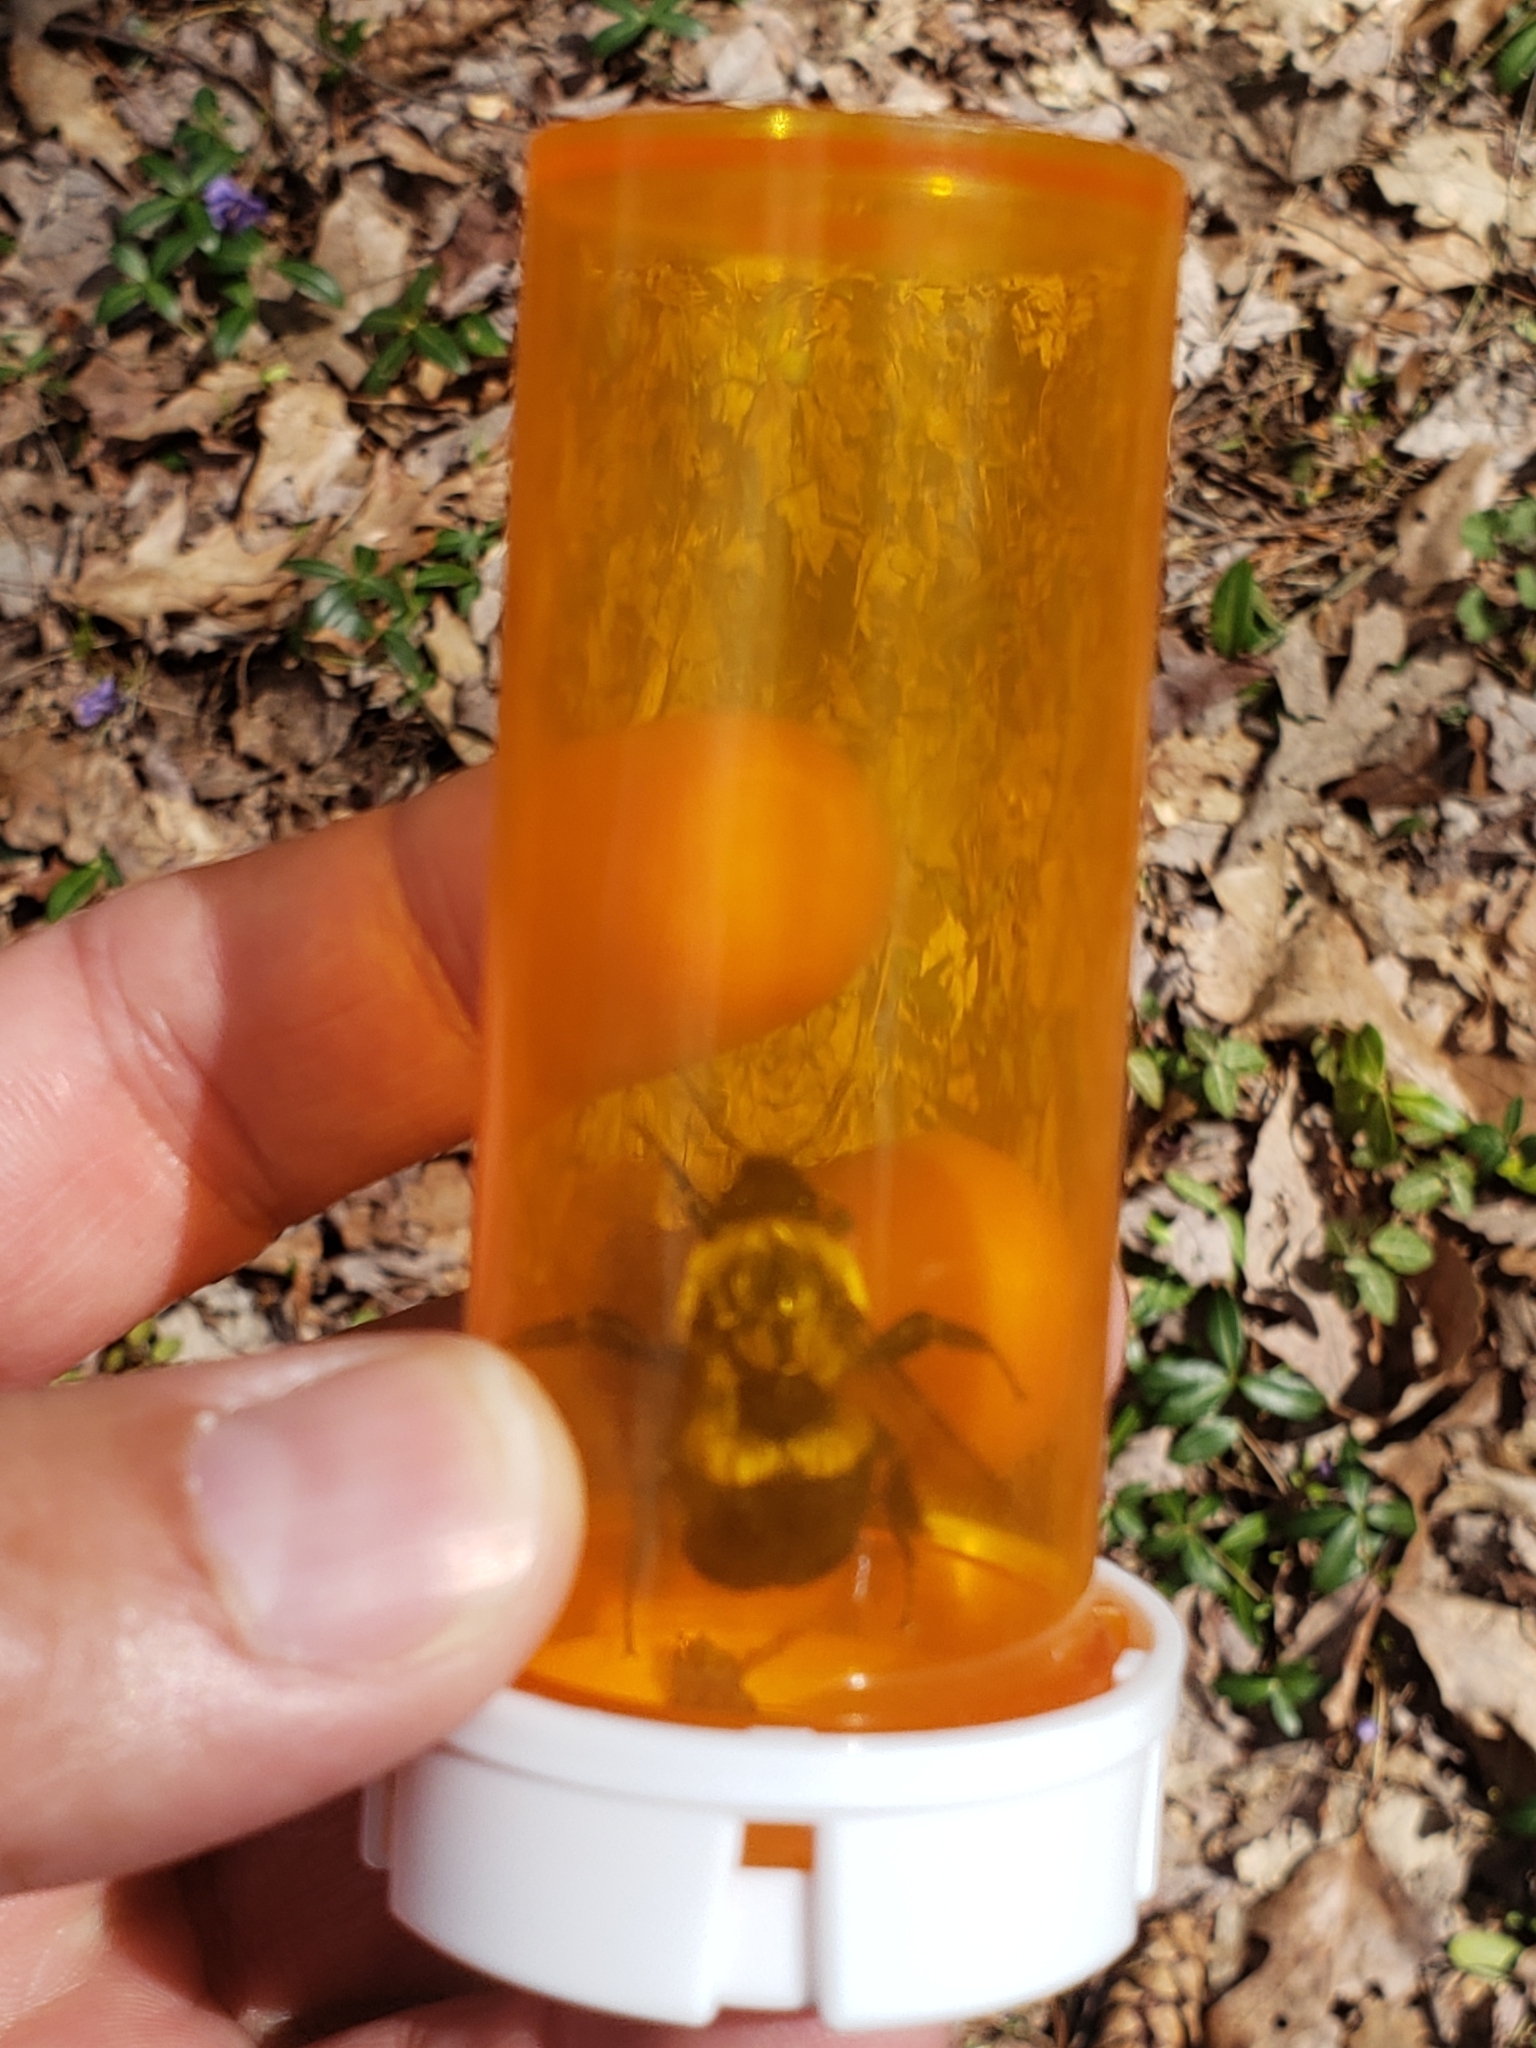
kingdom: Animalia
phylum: Arthropoda
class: Insecta
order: Hymenoptera
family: Apidae
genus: Bombus
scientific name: Bombus impatiens
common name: Common eastern bumble bee
